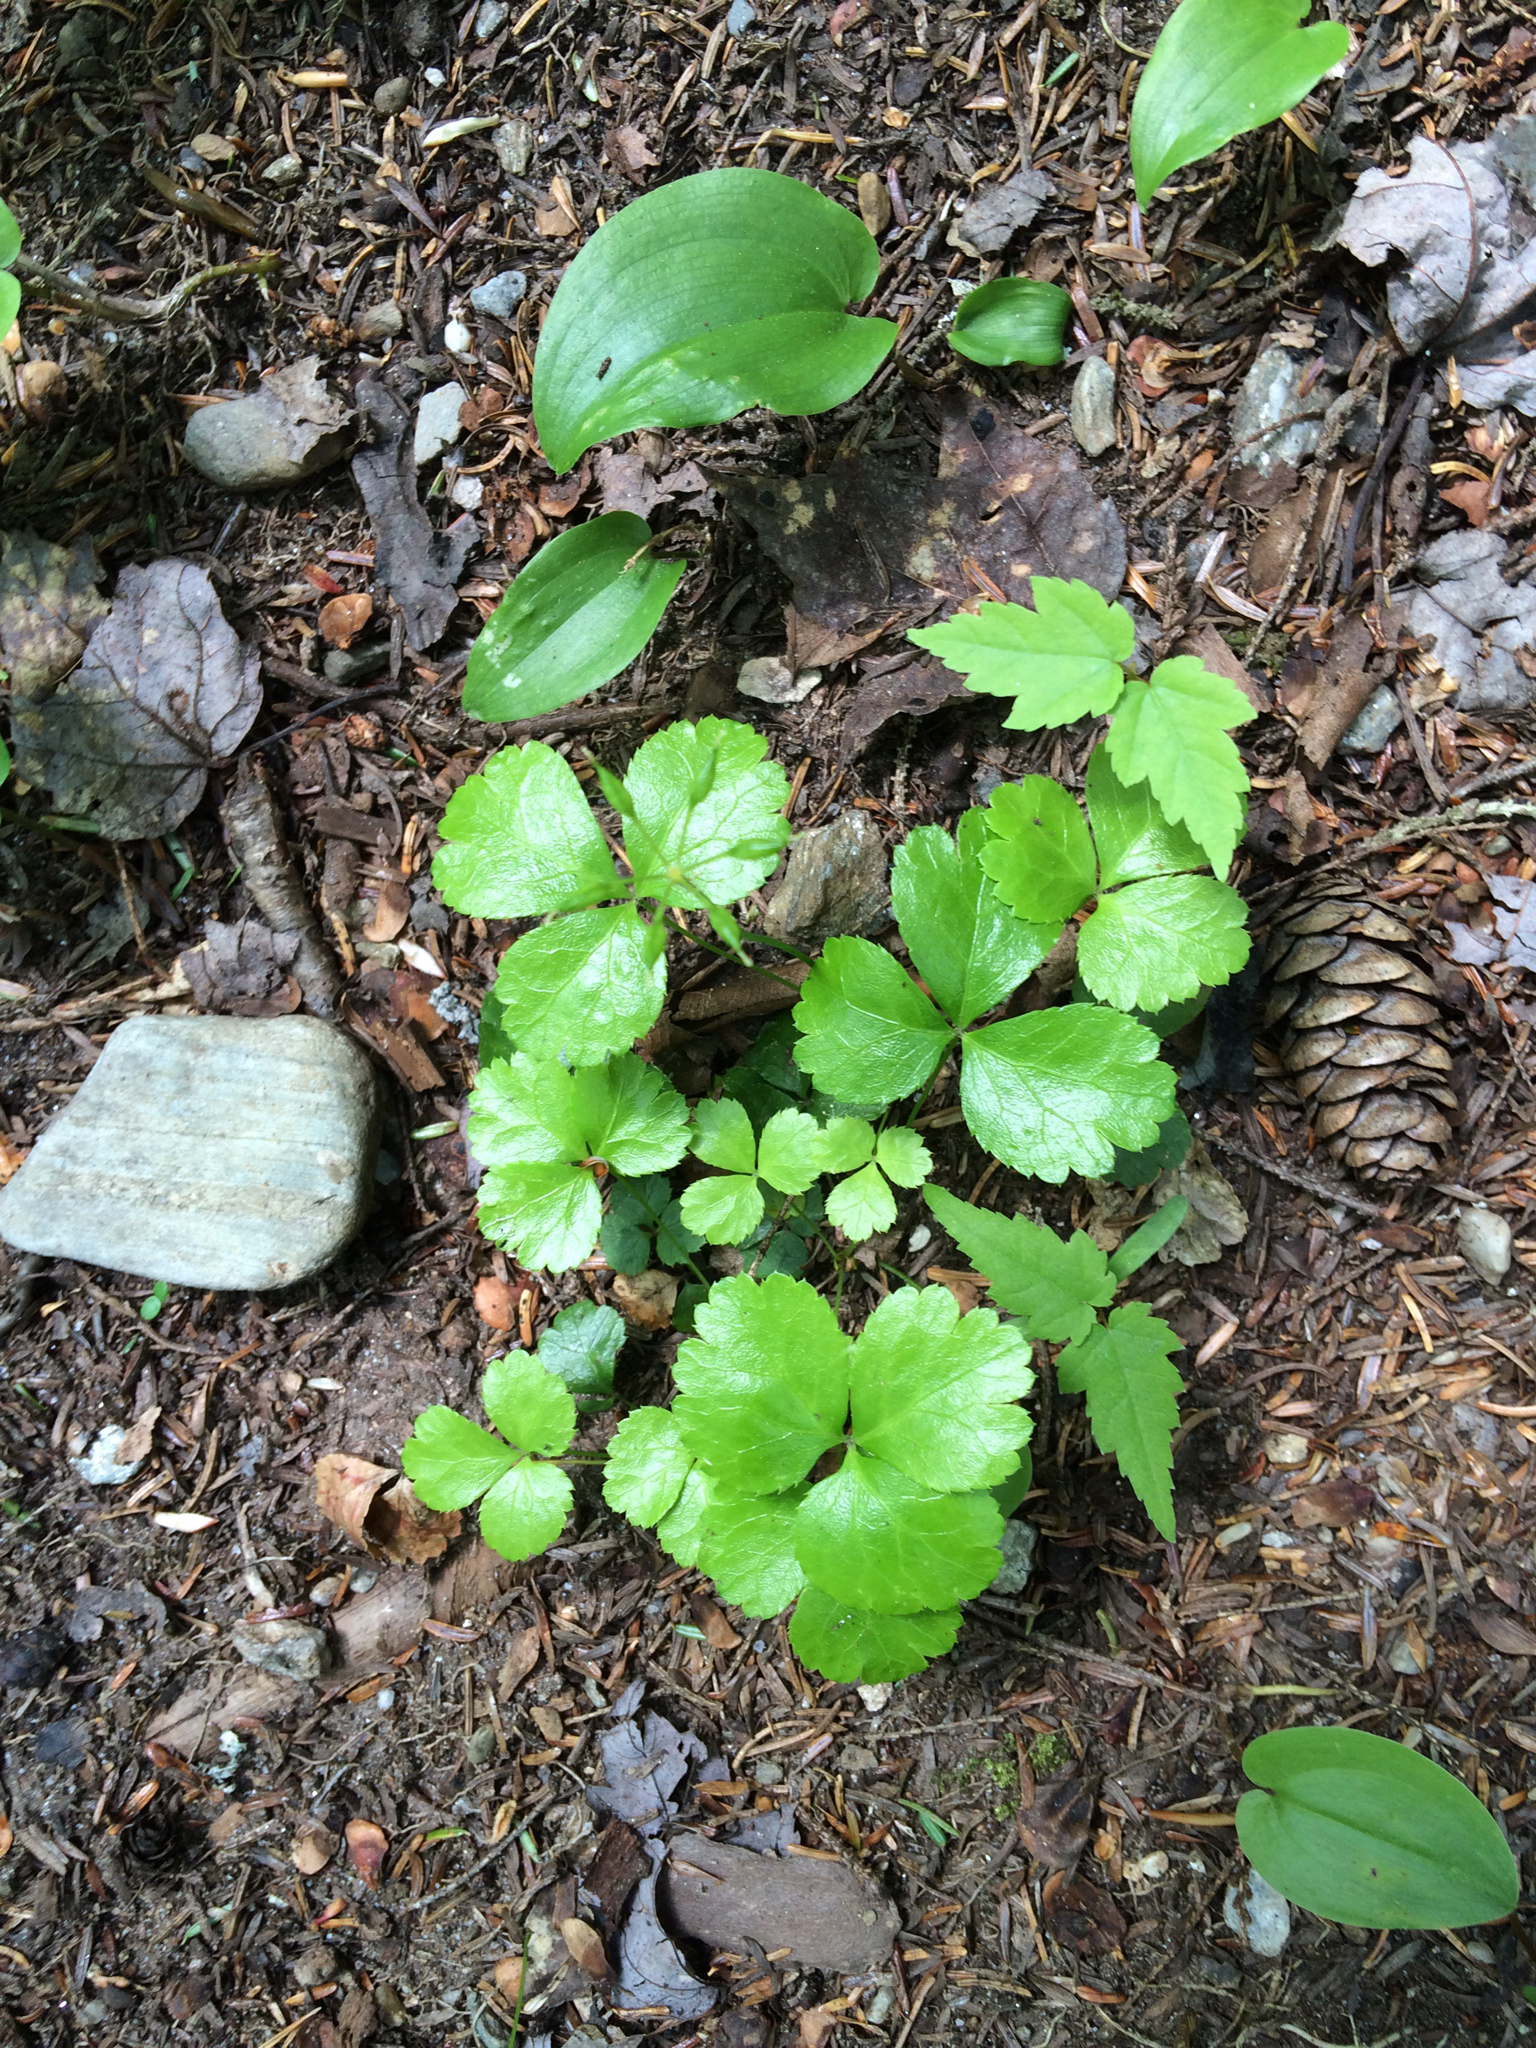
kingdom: Plantae
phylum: Tracheophyta
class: Magnoliopsida
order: Ranunculales
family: Ranunculaceae
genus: Coptis
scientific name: Coptis trifolia
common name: Canker-root
